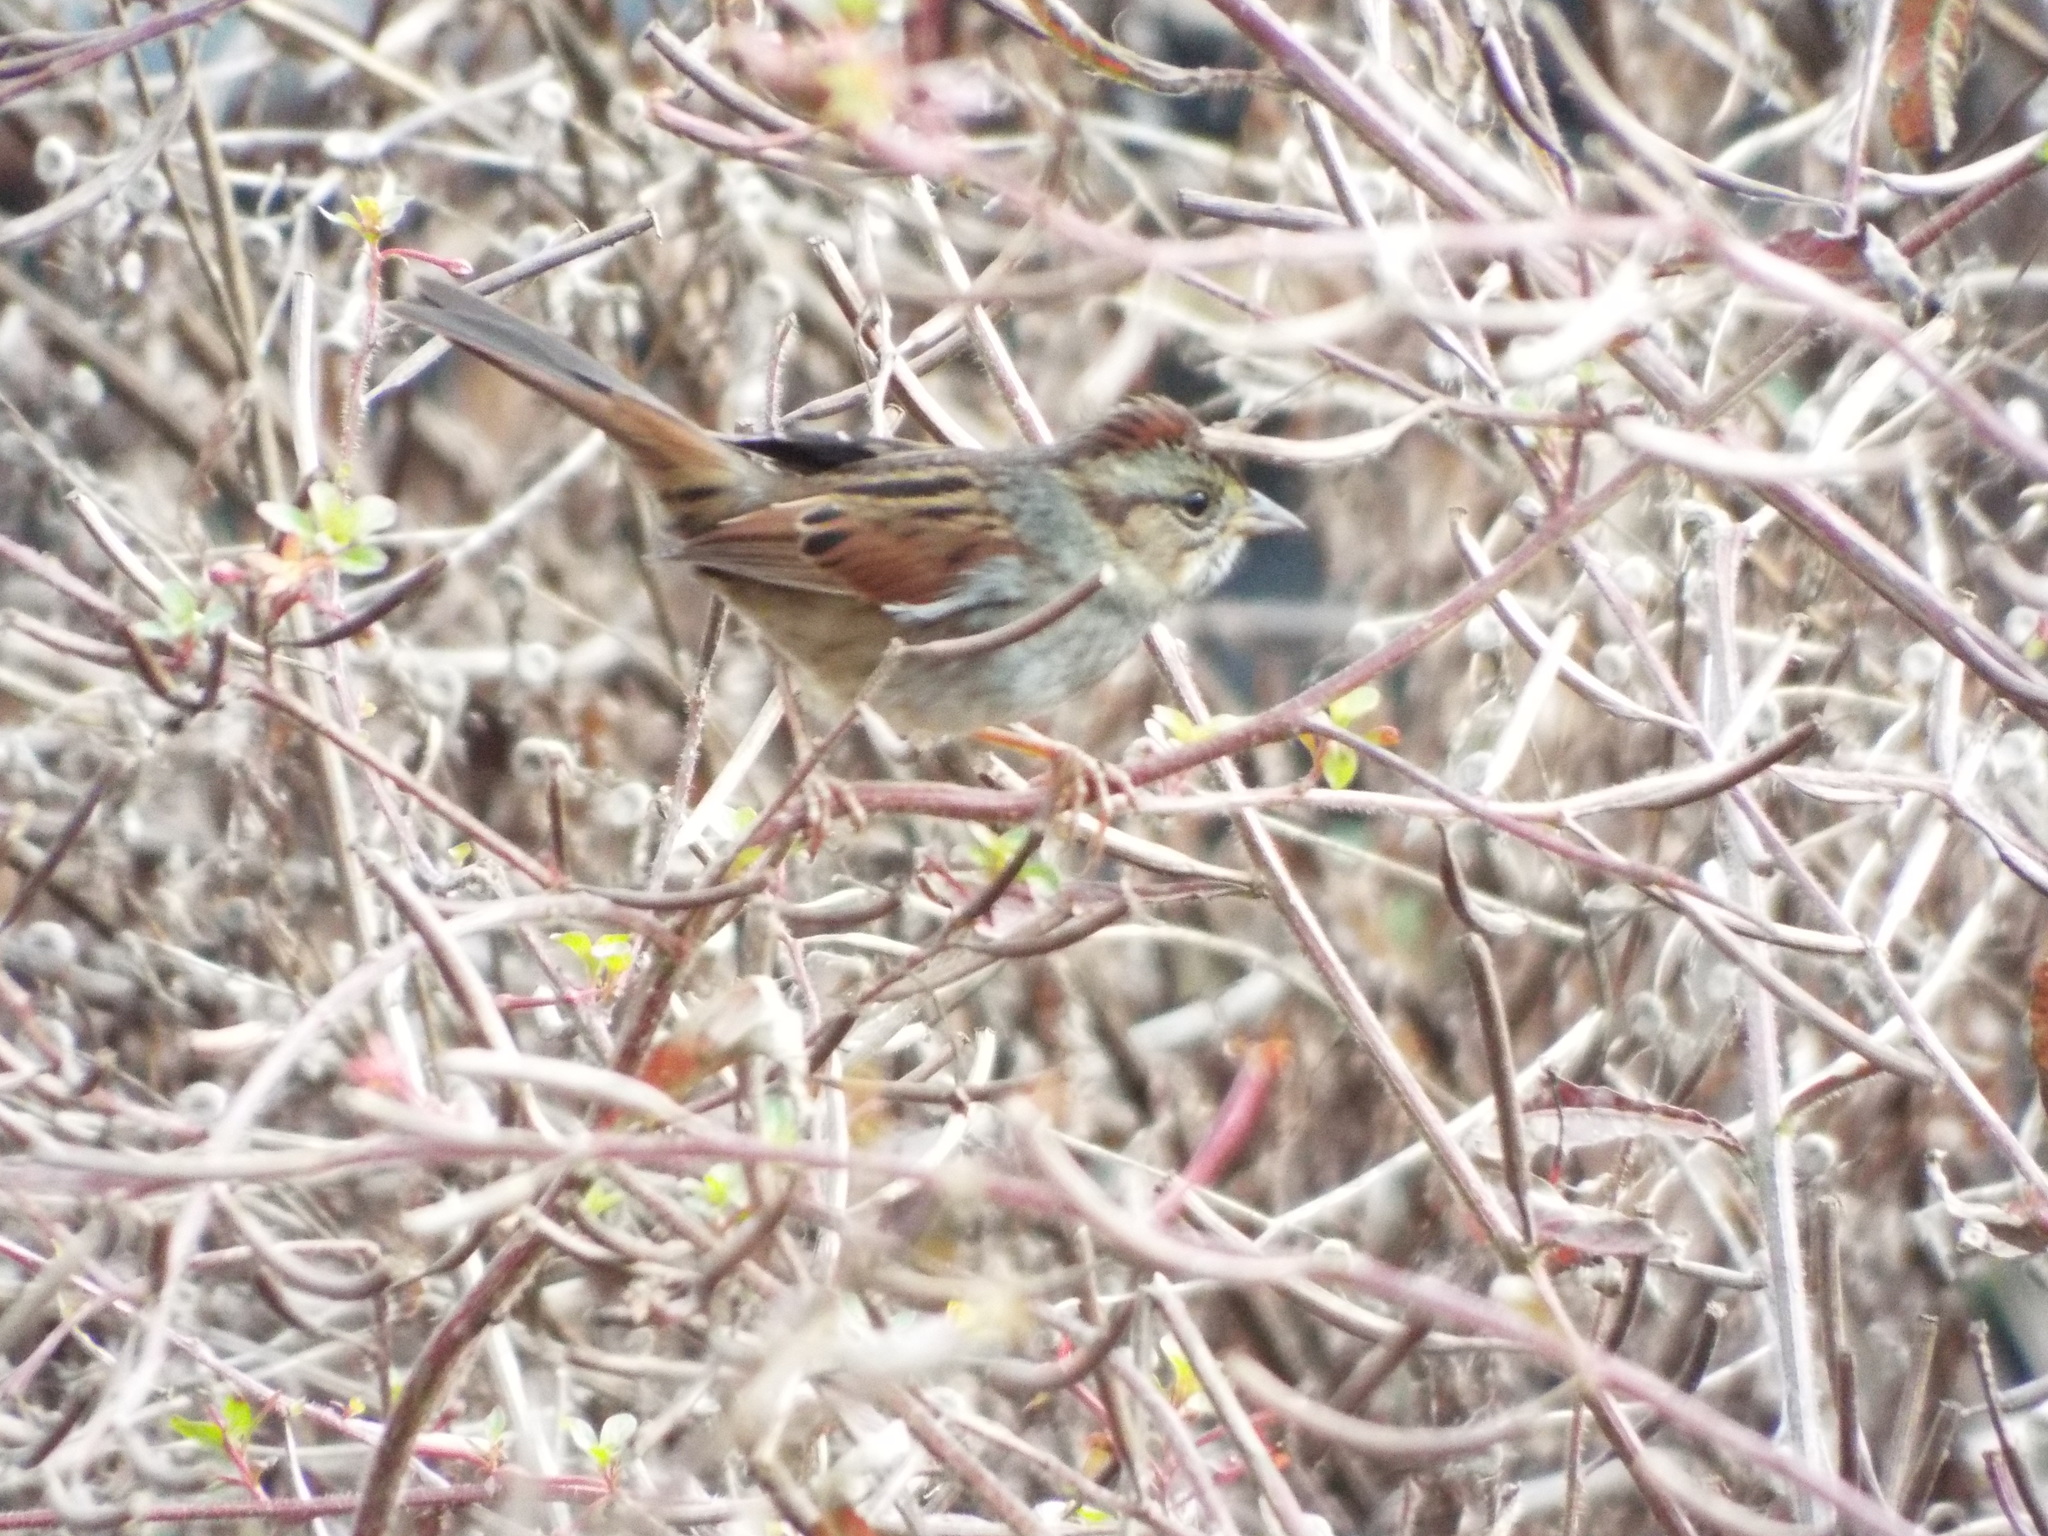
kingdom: Animalia
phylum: Chordata
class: Aves
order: Passeriformes
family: Passerellidae
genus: Melospiza
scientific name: Melospiza georgiana
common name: Swamp sparrow
